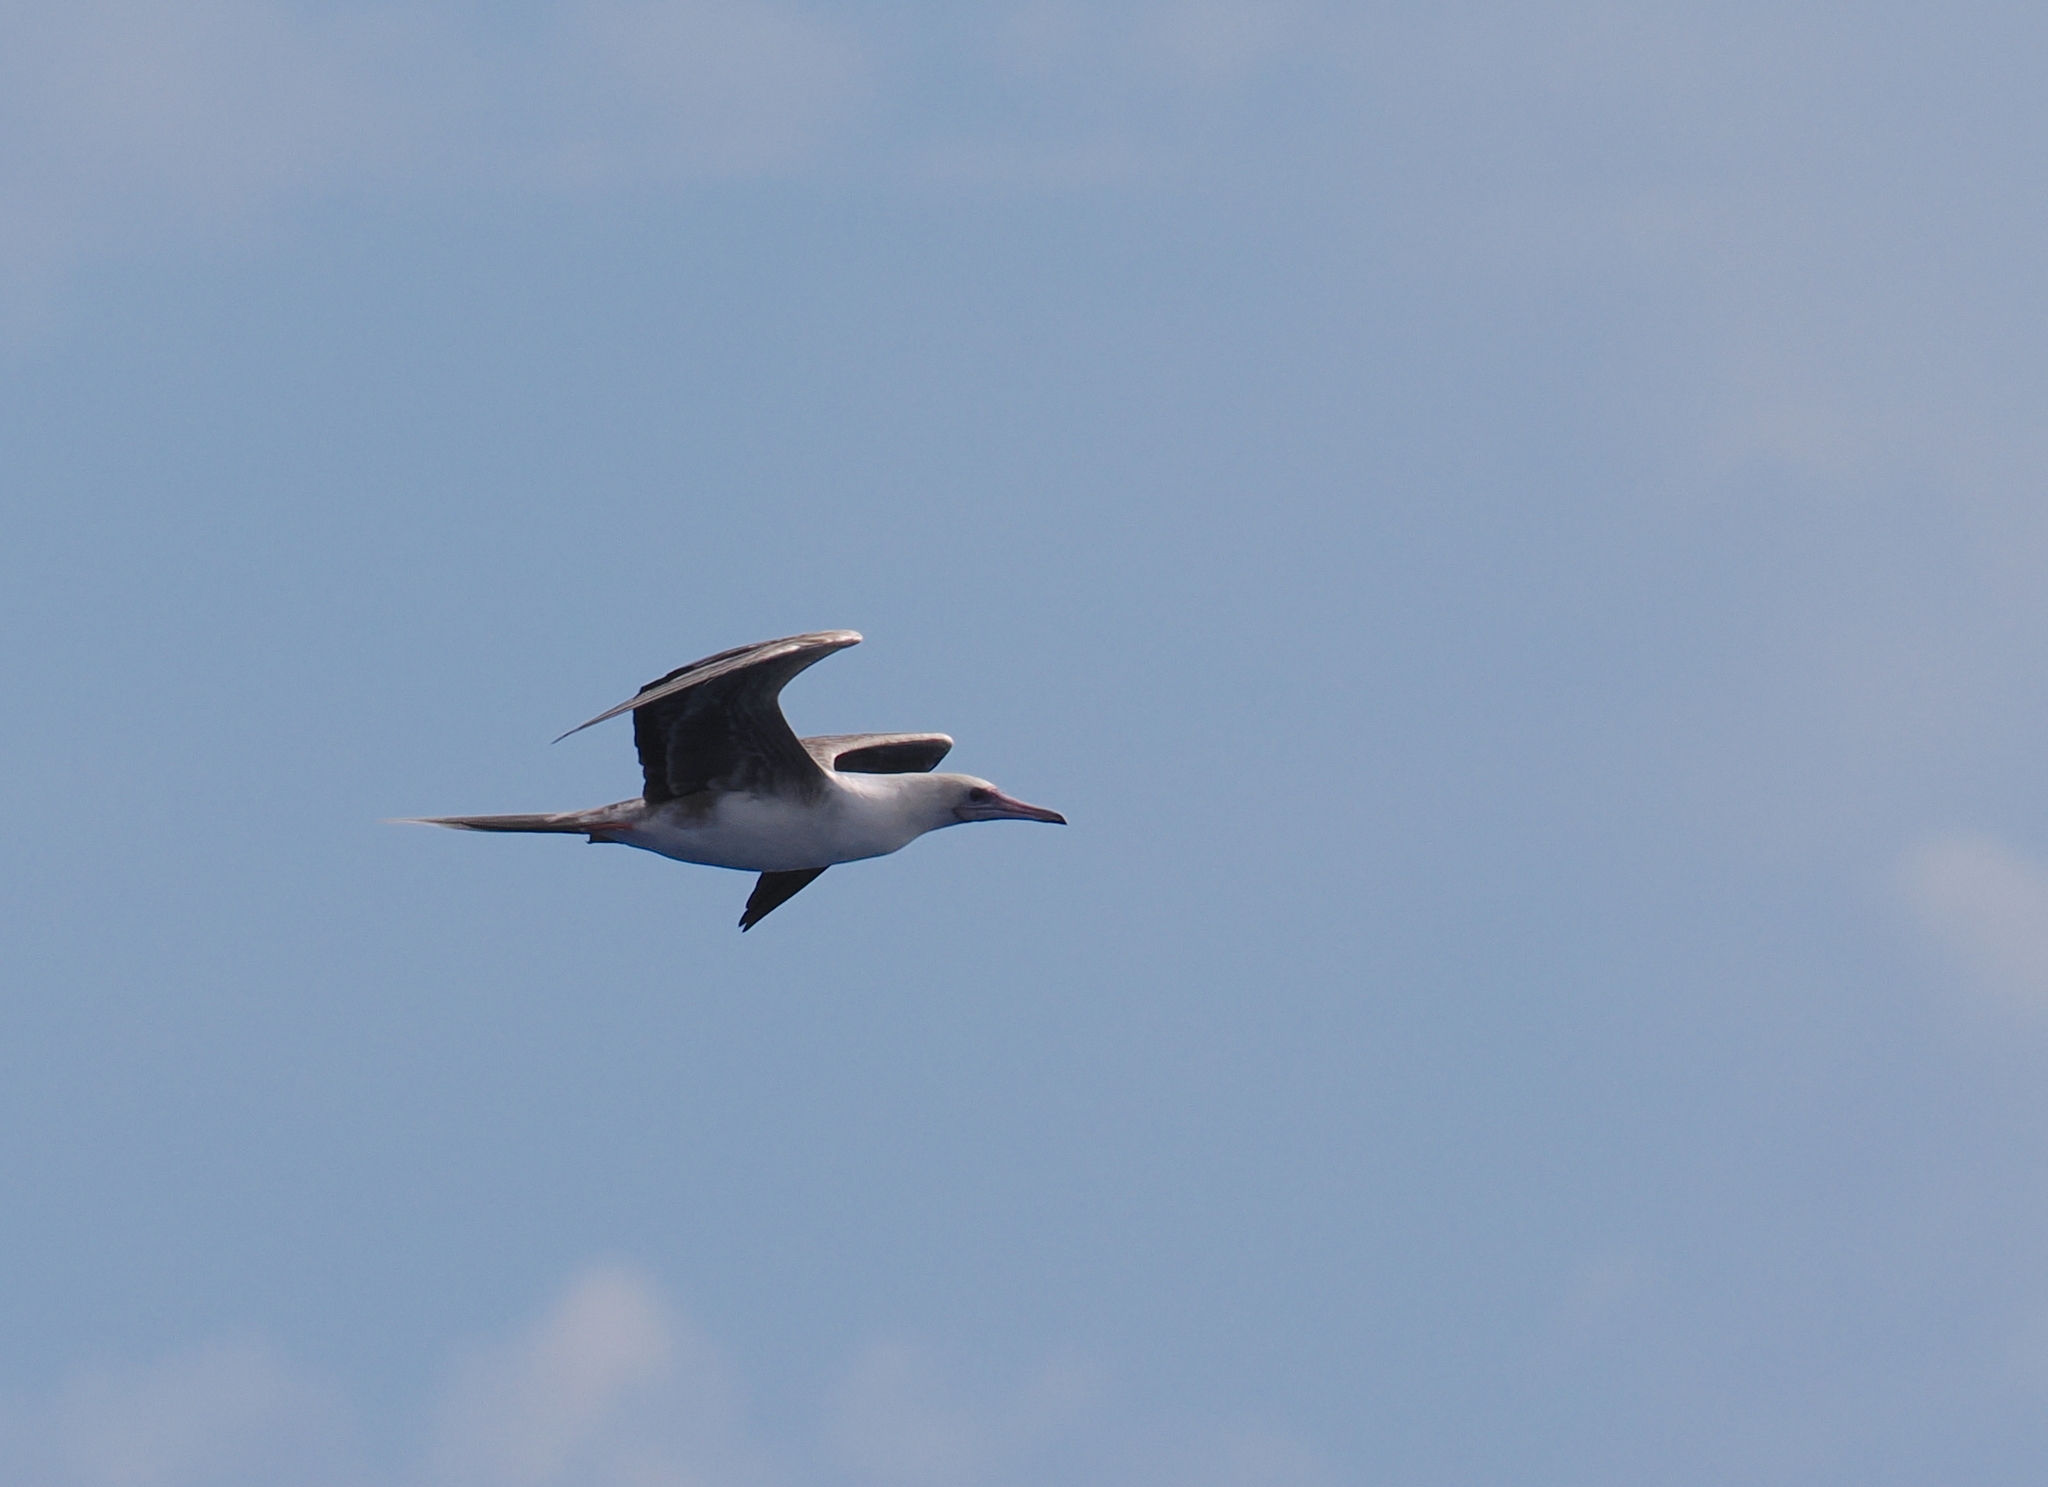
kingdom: Animalia
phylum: Chordata
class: Aves
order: Suliformes
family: Sulidae
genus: Sula
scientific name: Sula sula
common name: Red-footed booby
